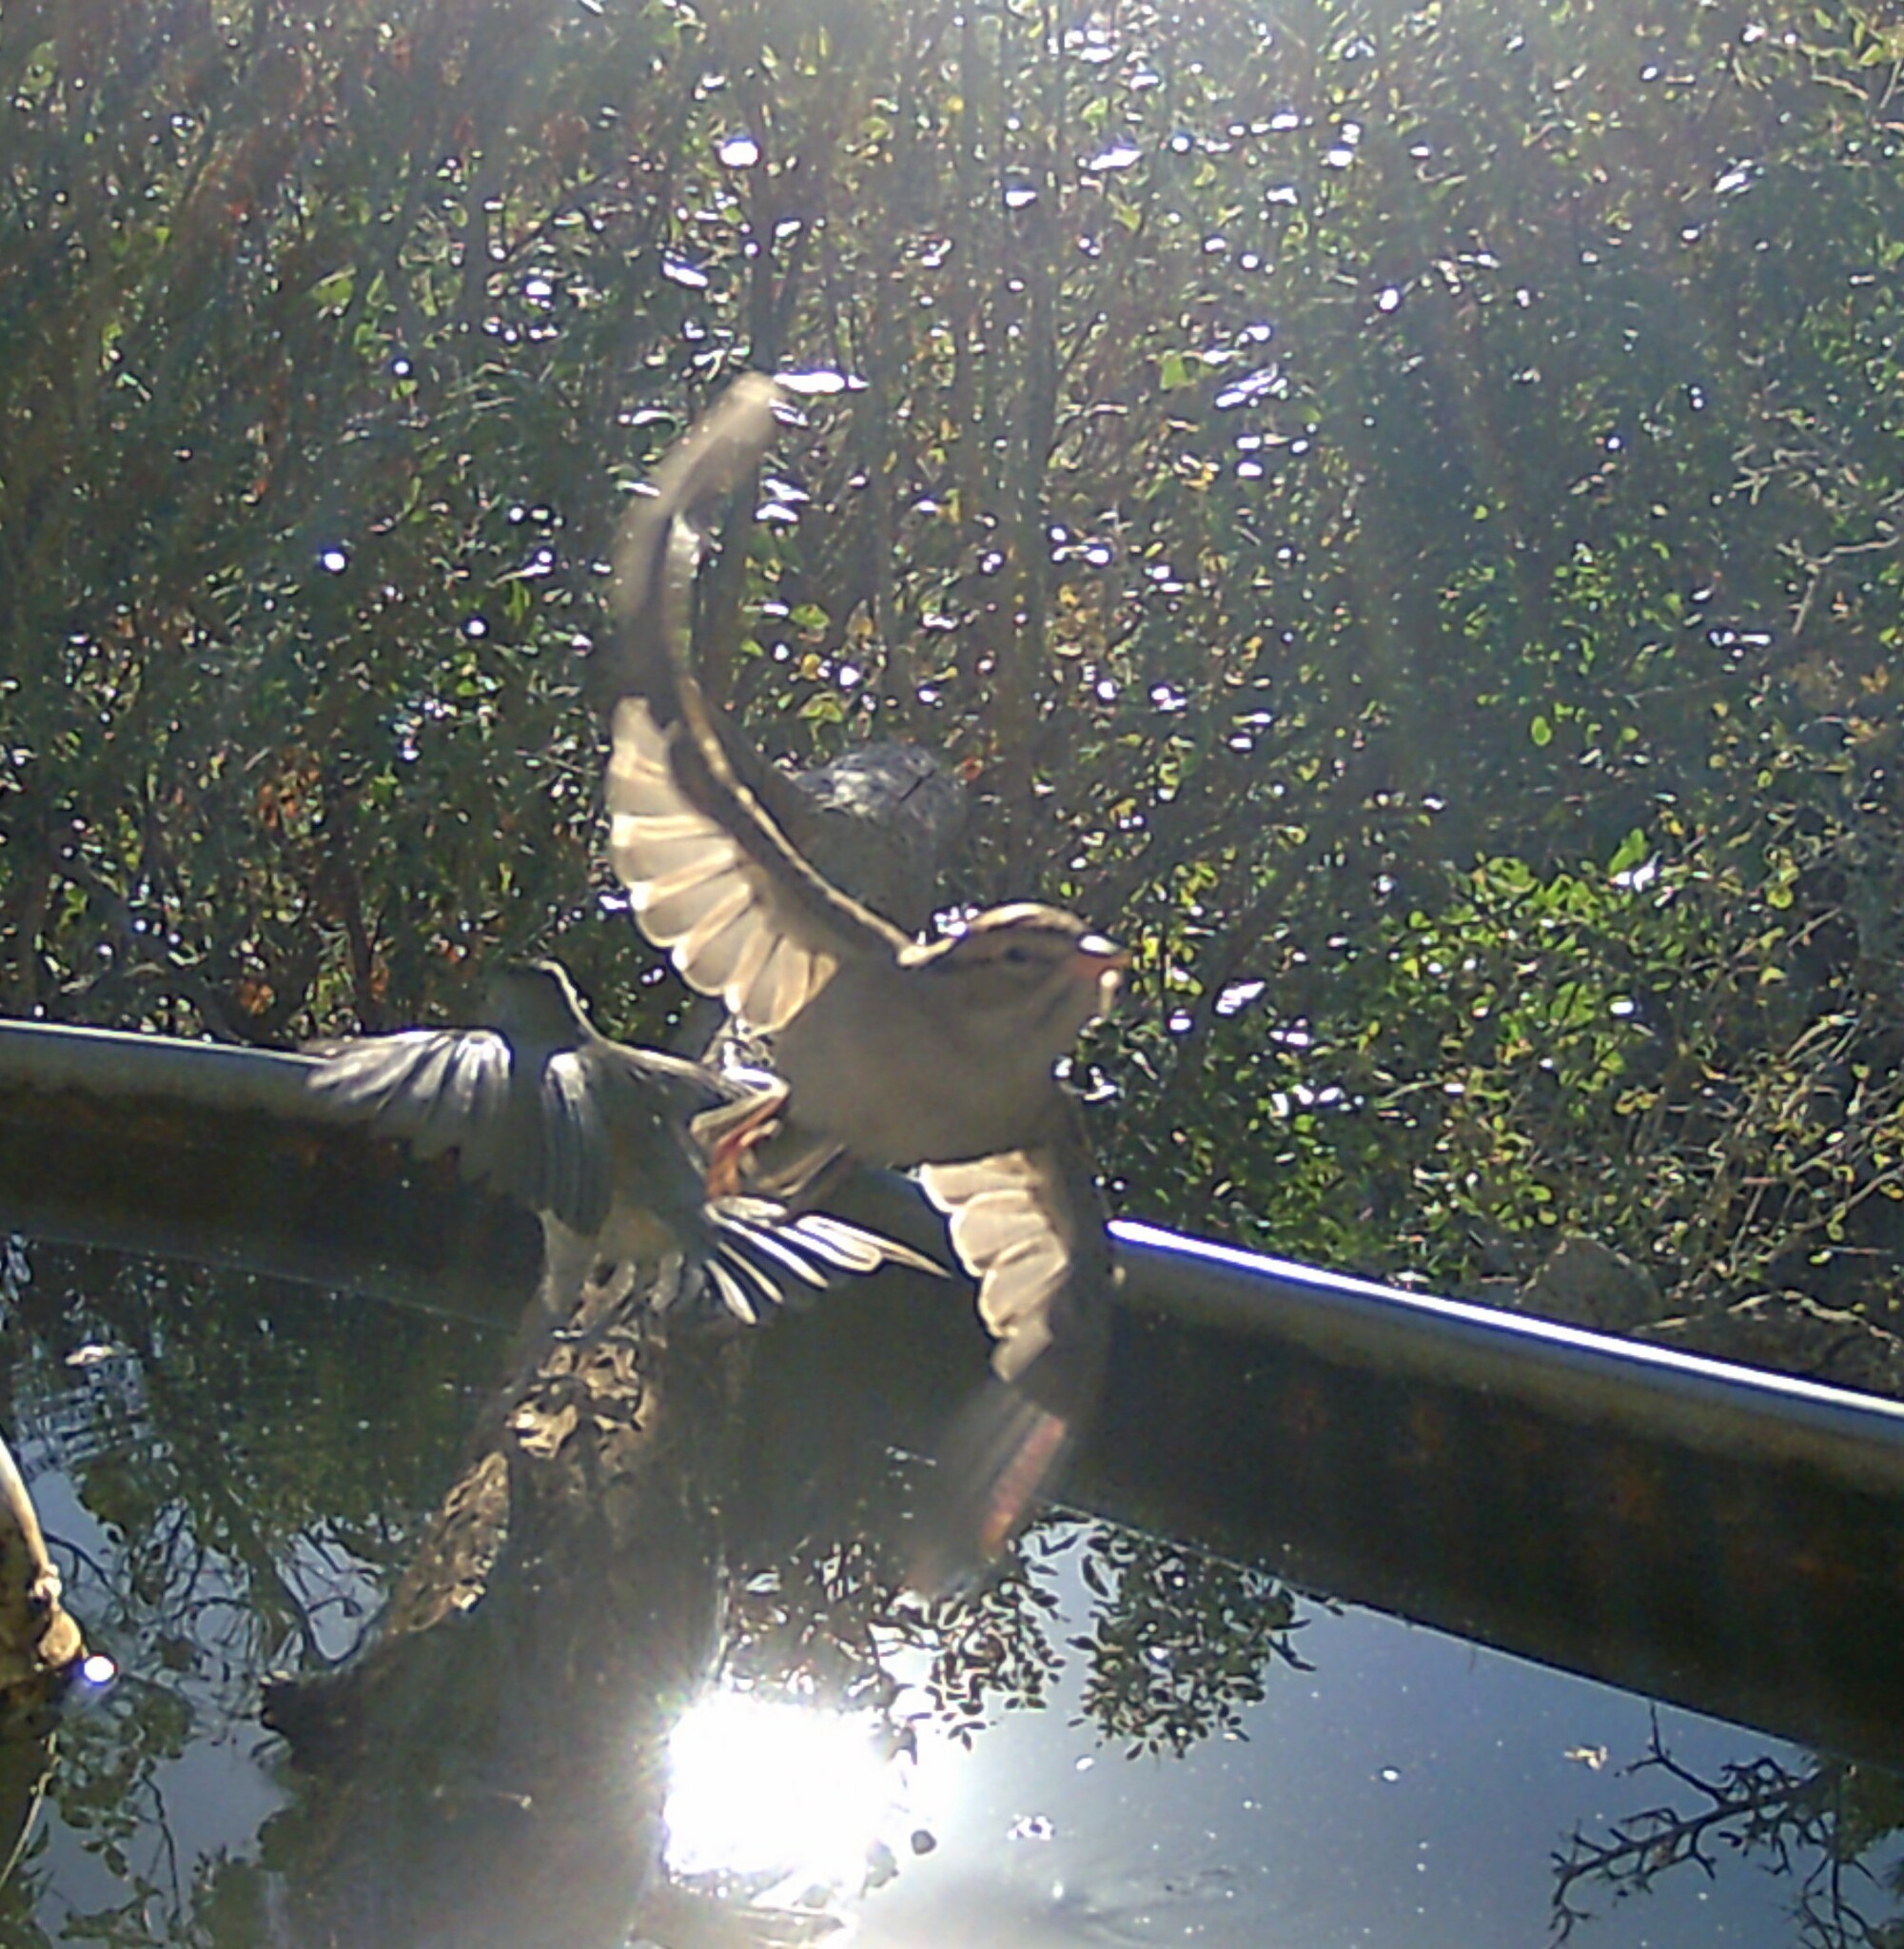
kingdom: Animalia
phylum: Chordata
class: Aves
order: Passeriformes
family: Passerellidae
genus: Spizella
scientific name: Spizella passerina
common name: Chipping sparrow
